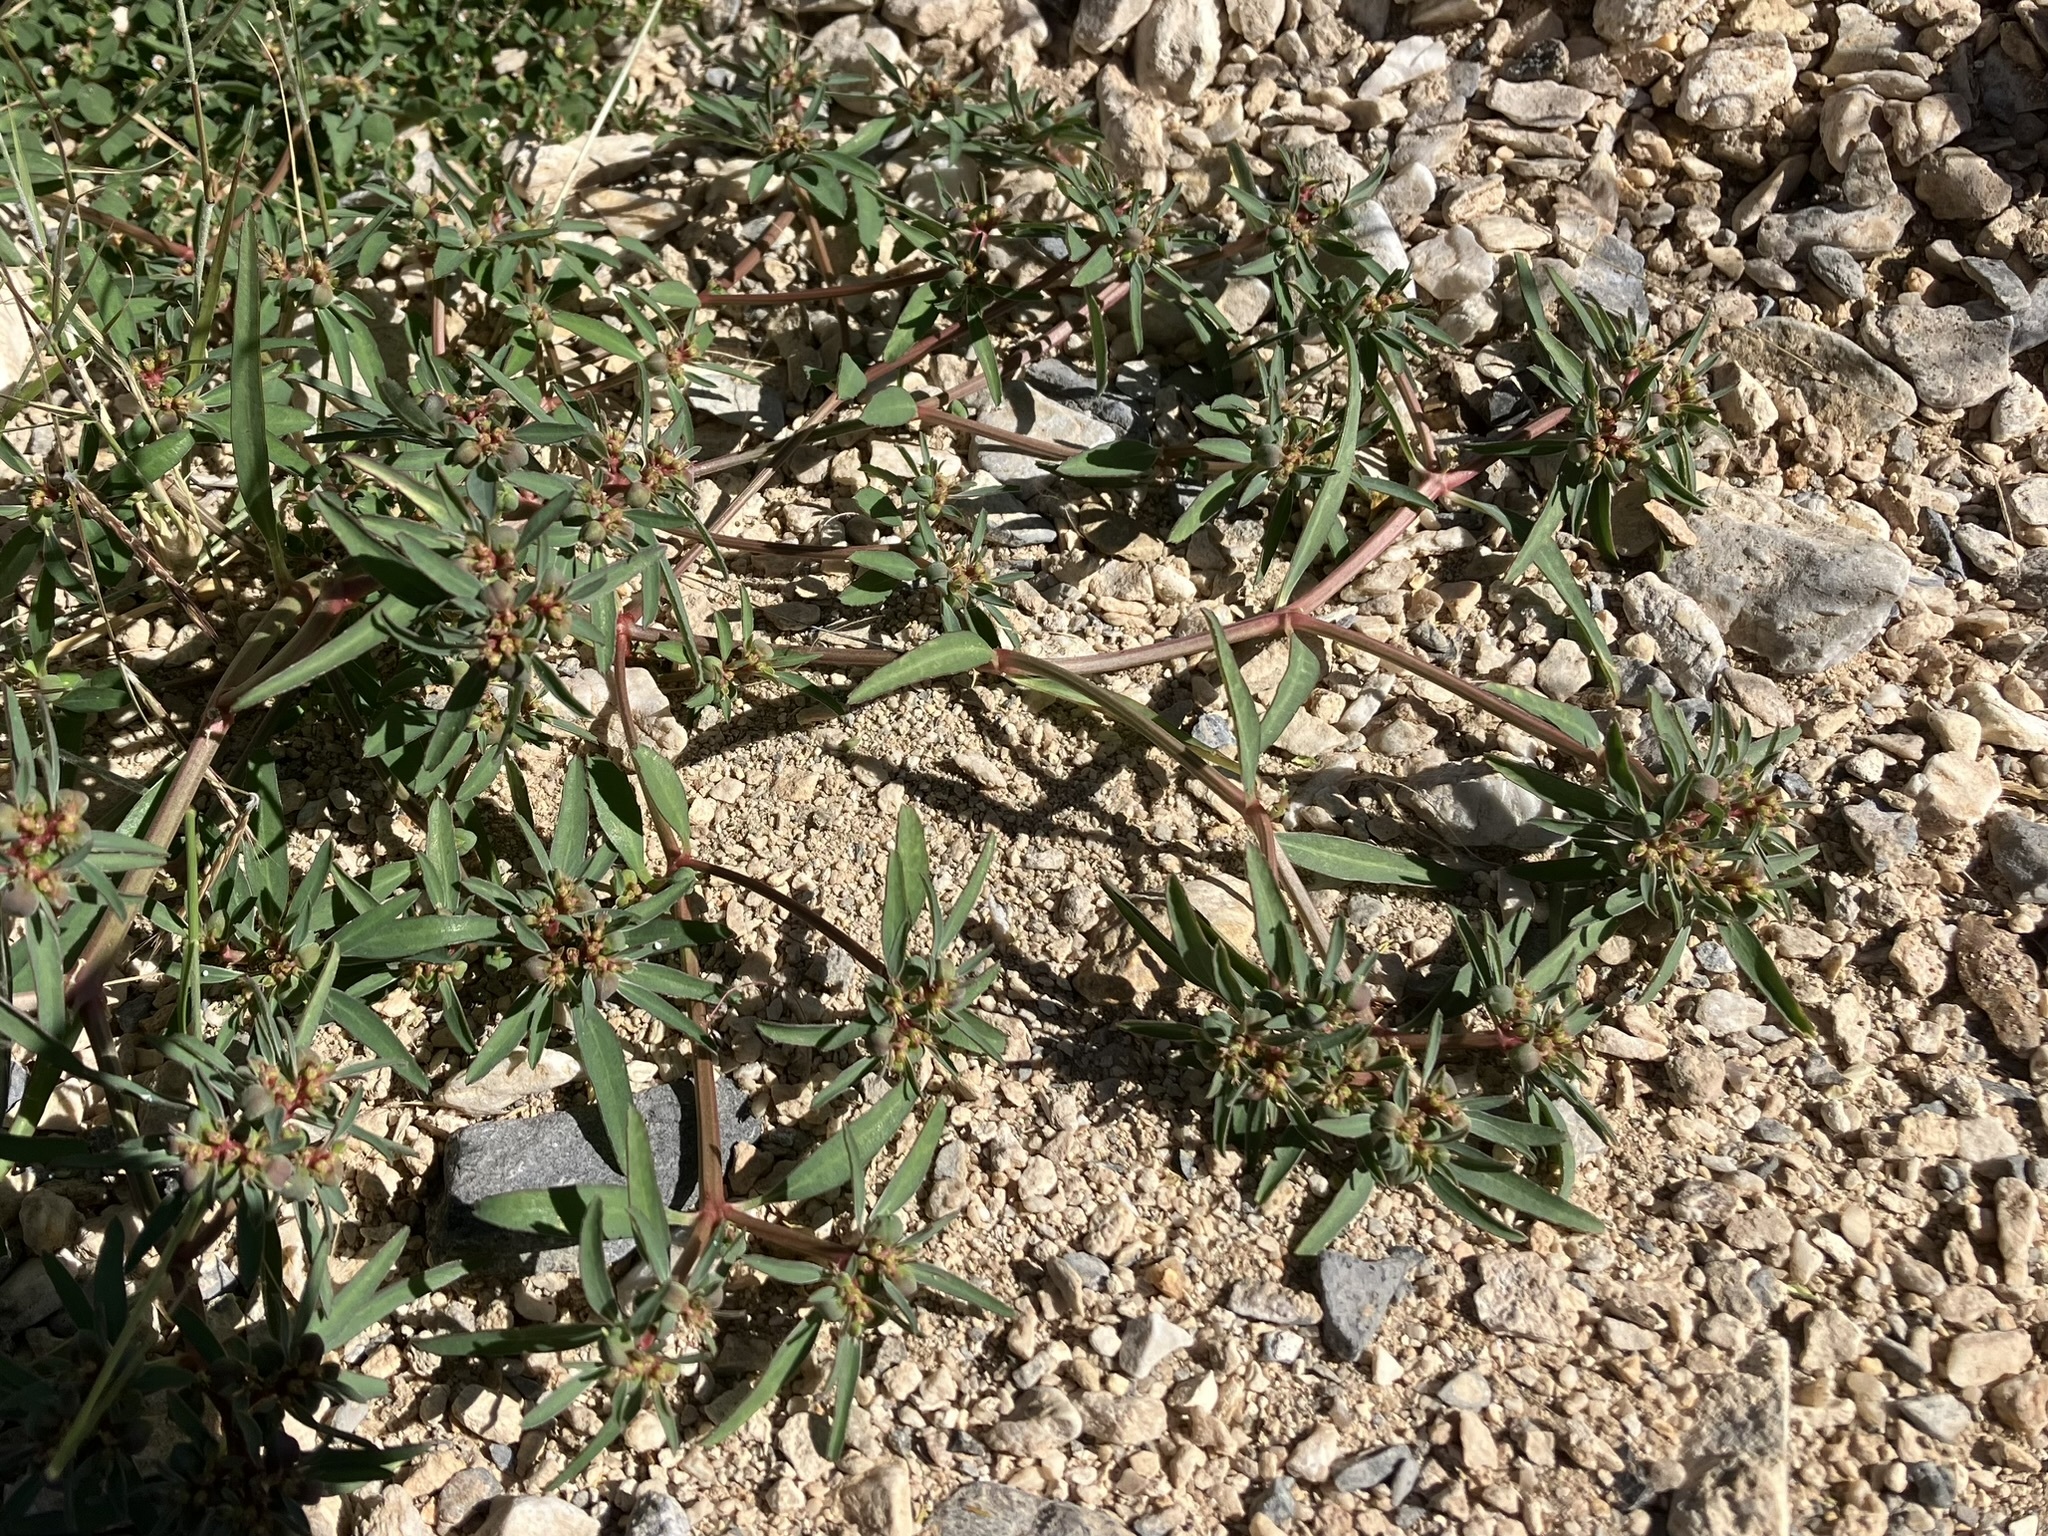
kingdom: Plantae
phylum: Tracheophyta
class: Magnoliopsida
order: Malpighiales
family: Euphorbiaceae
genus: Euphorbia
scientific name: Euphorbia exstipulata
